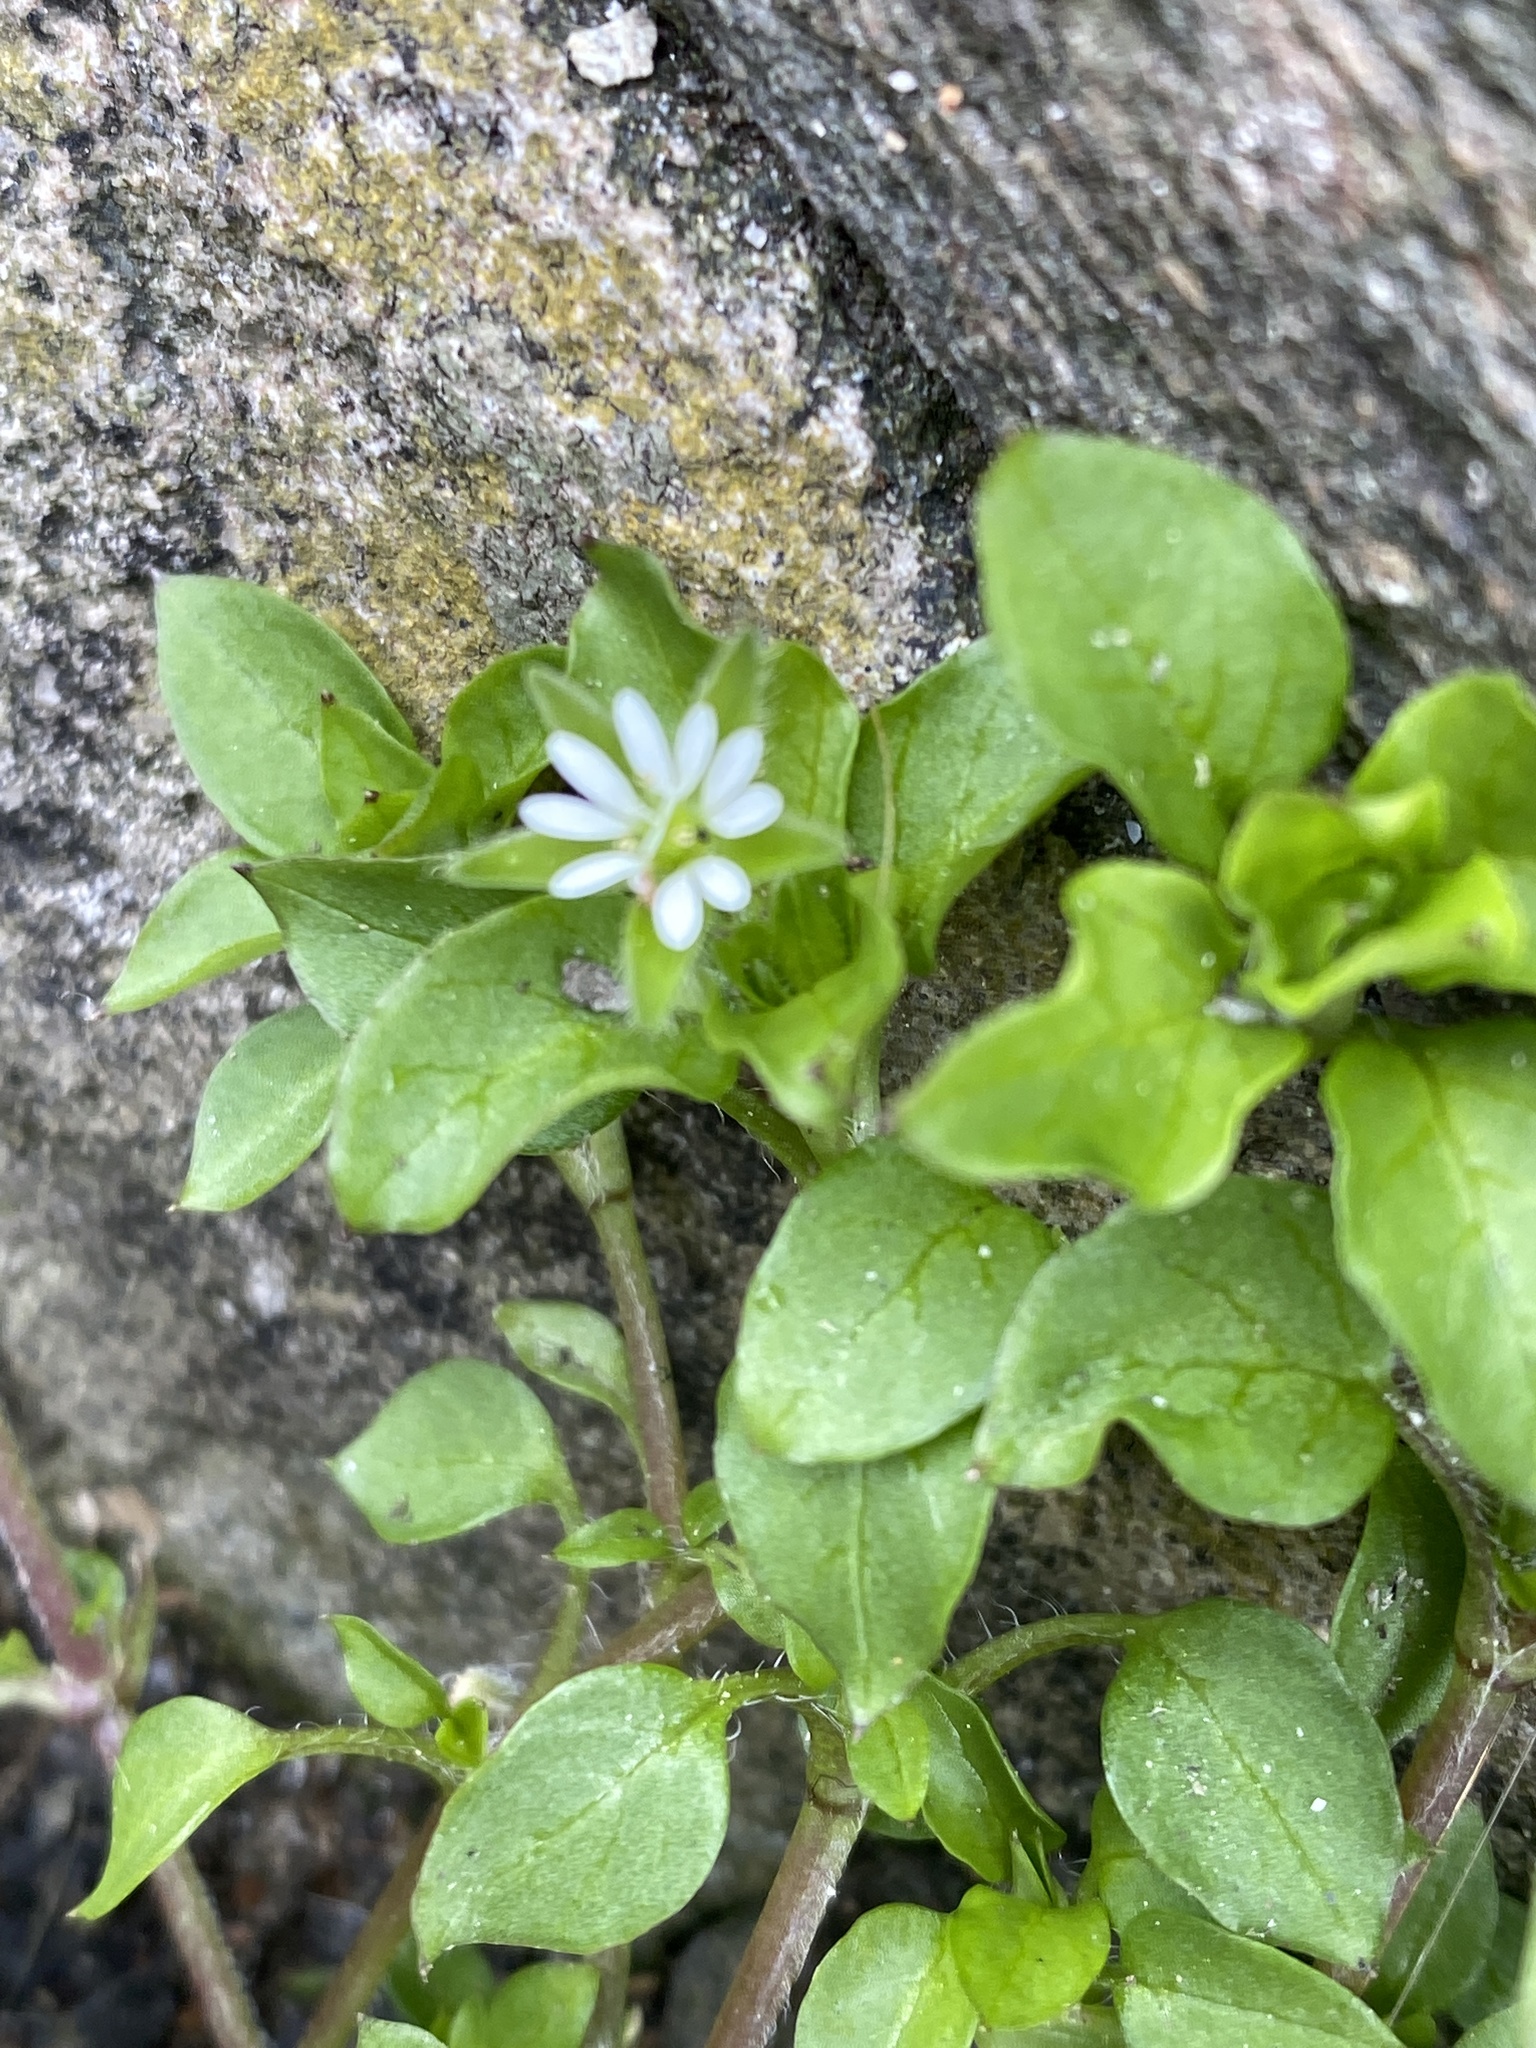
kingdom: Plantae
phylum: Tracheophyta
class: Magnoliopsida
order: Caryophyllales
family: Caryophyllaceae
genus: Stellaria
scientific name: Stellaria media
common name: Common chickweed
